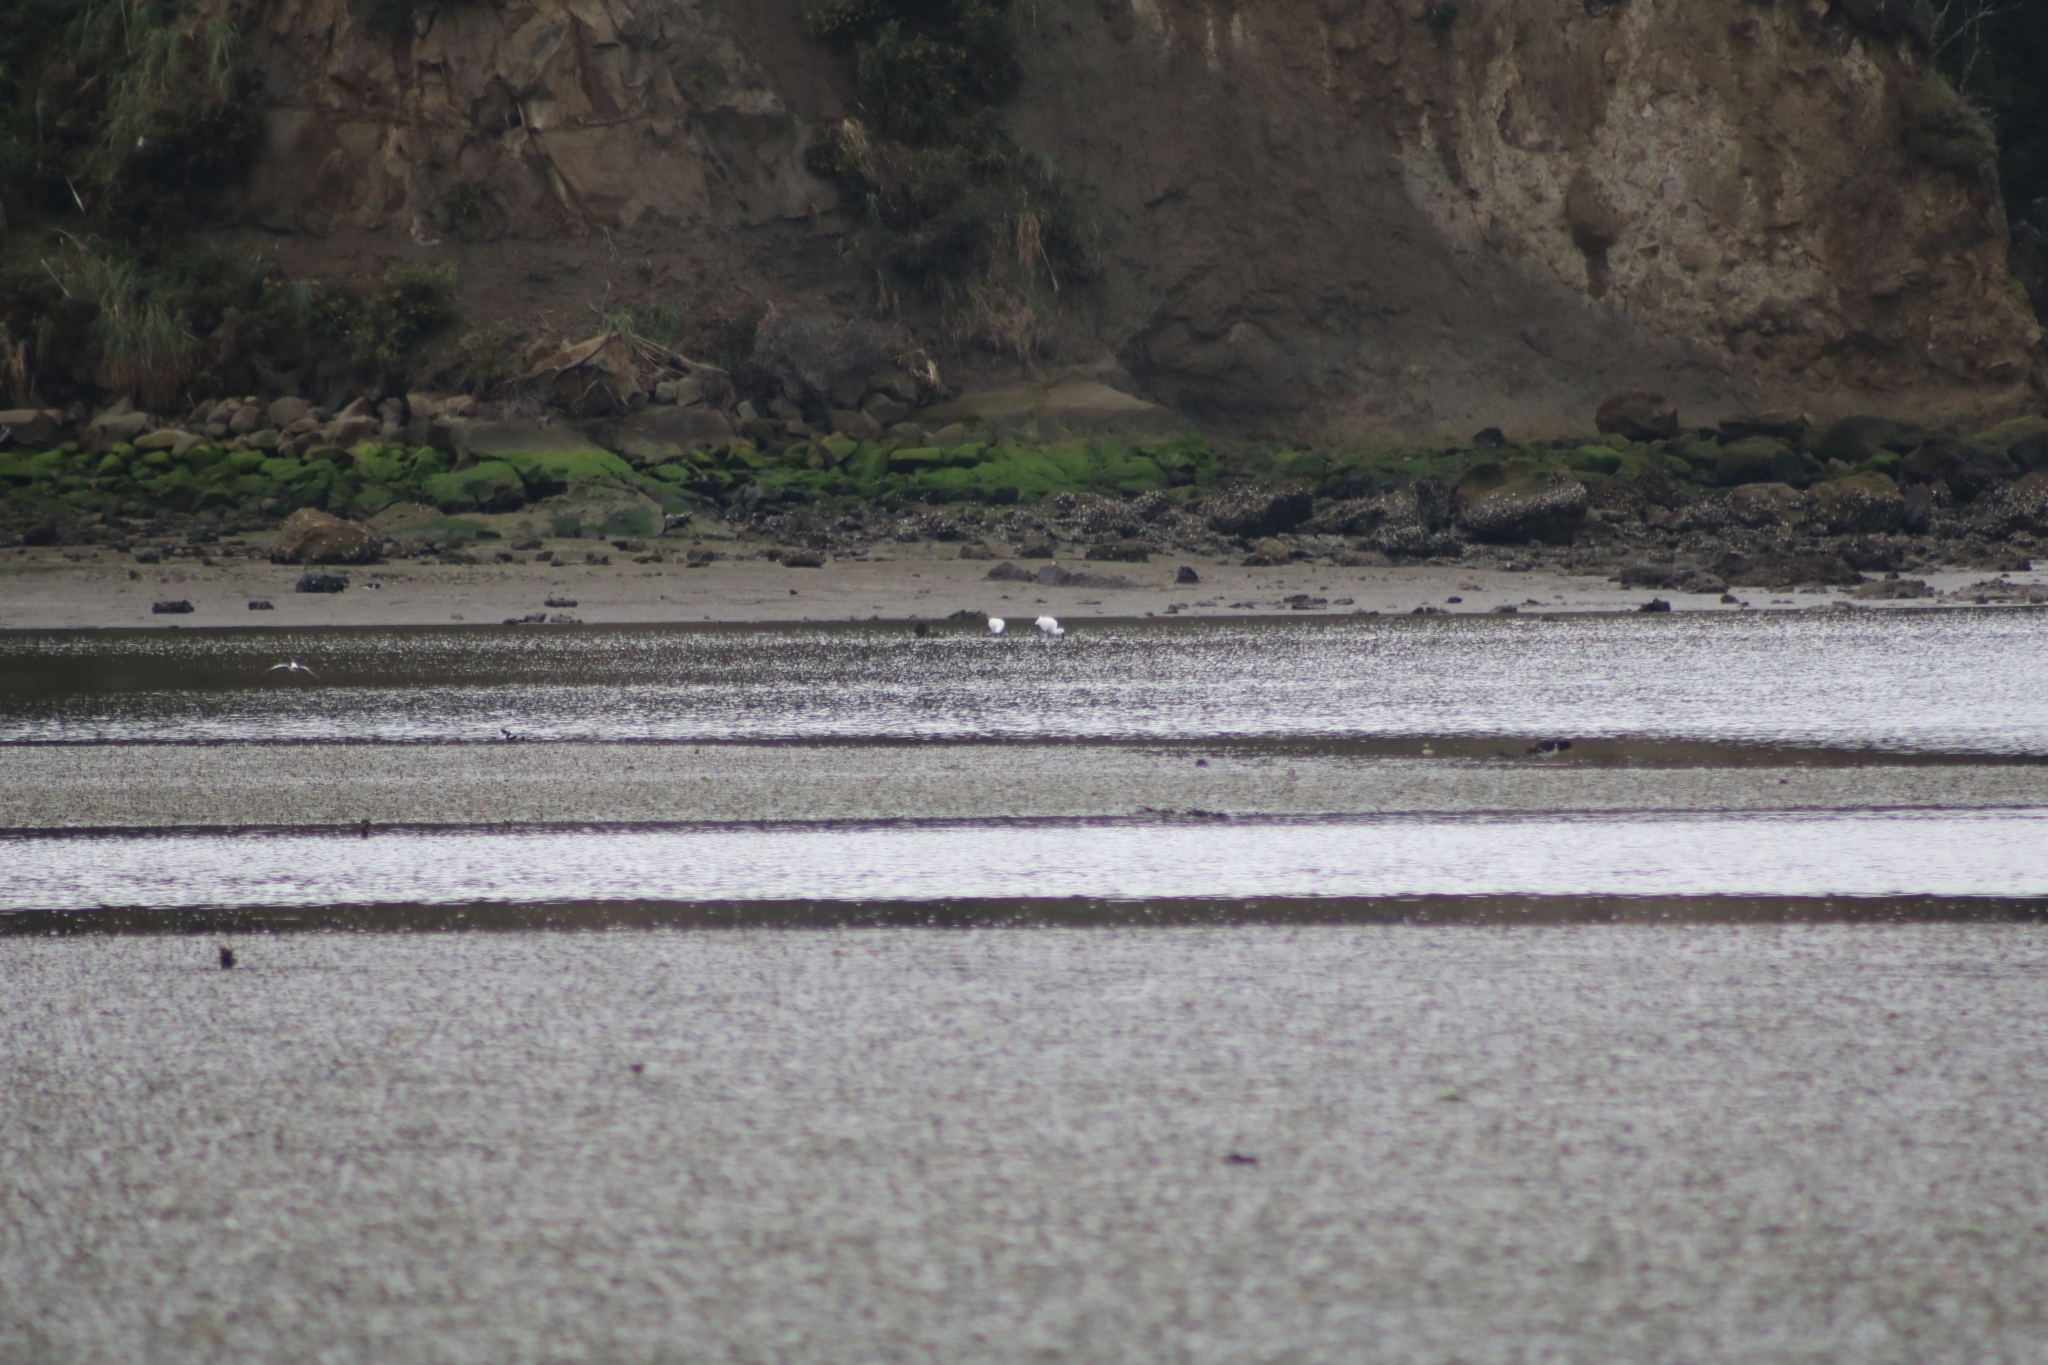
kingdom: Animalia
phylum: Chordata
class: Aves
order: Pelecaniformes
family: Threskiornithidae
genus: Platalea
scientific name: Platalea regia
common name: Royal spoonbill
